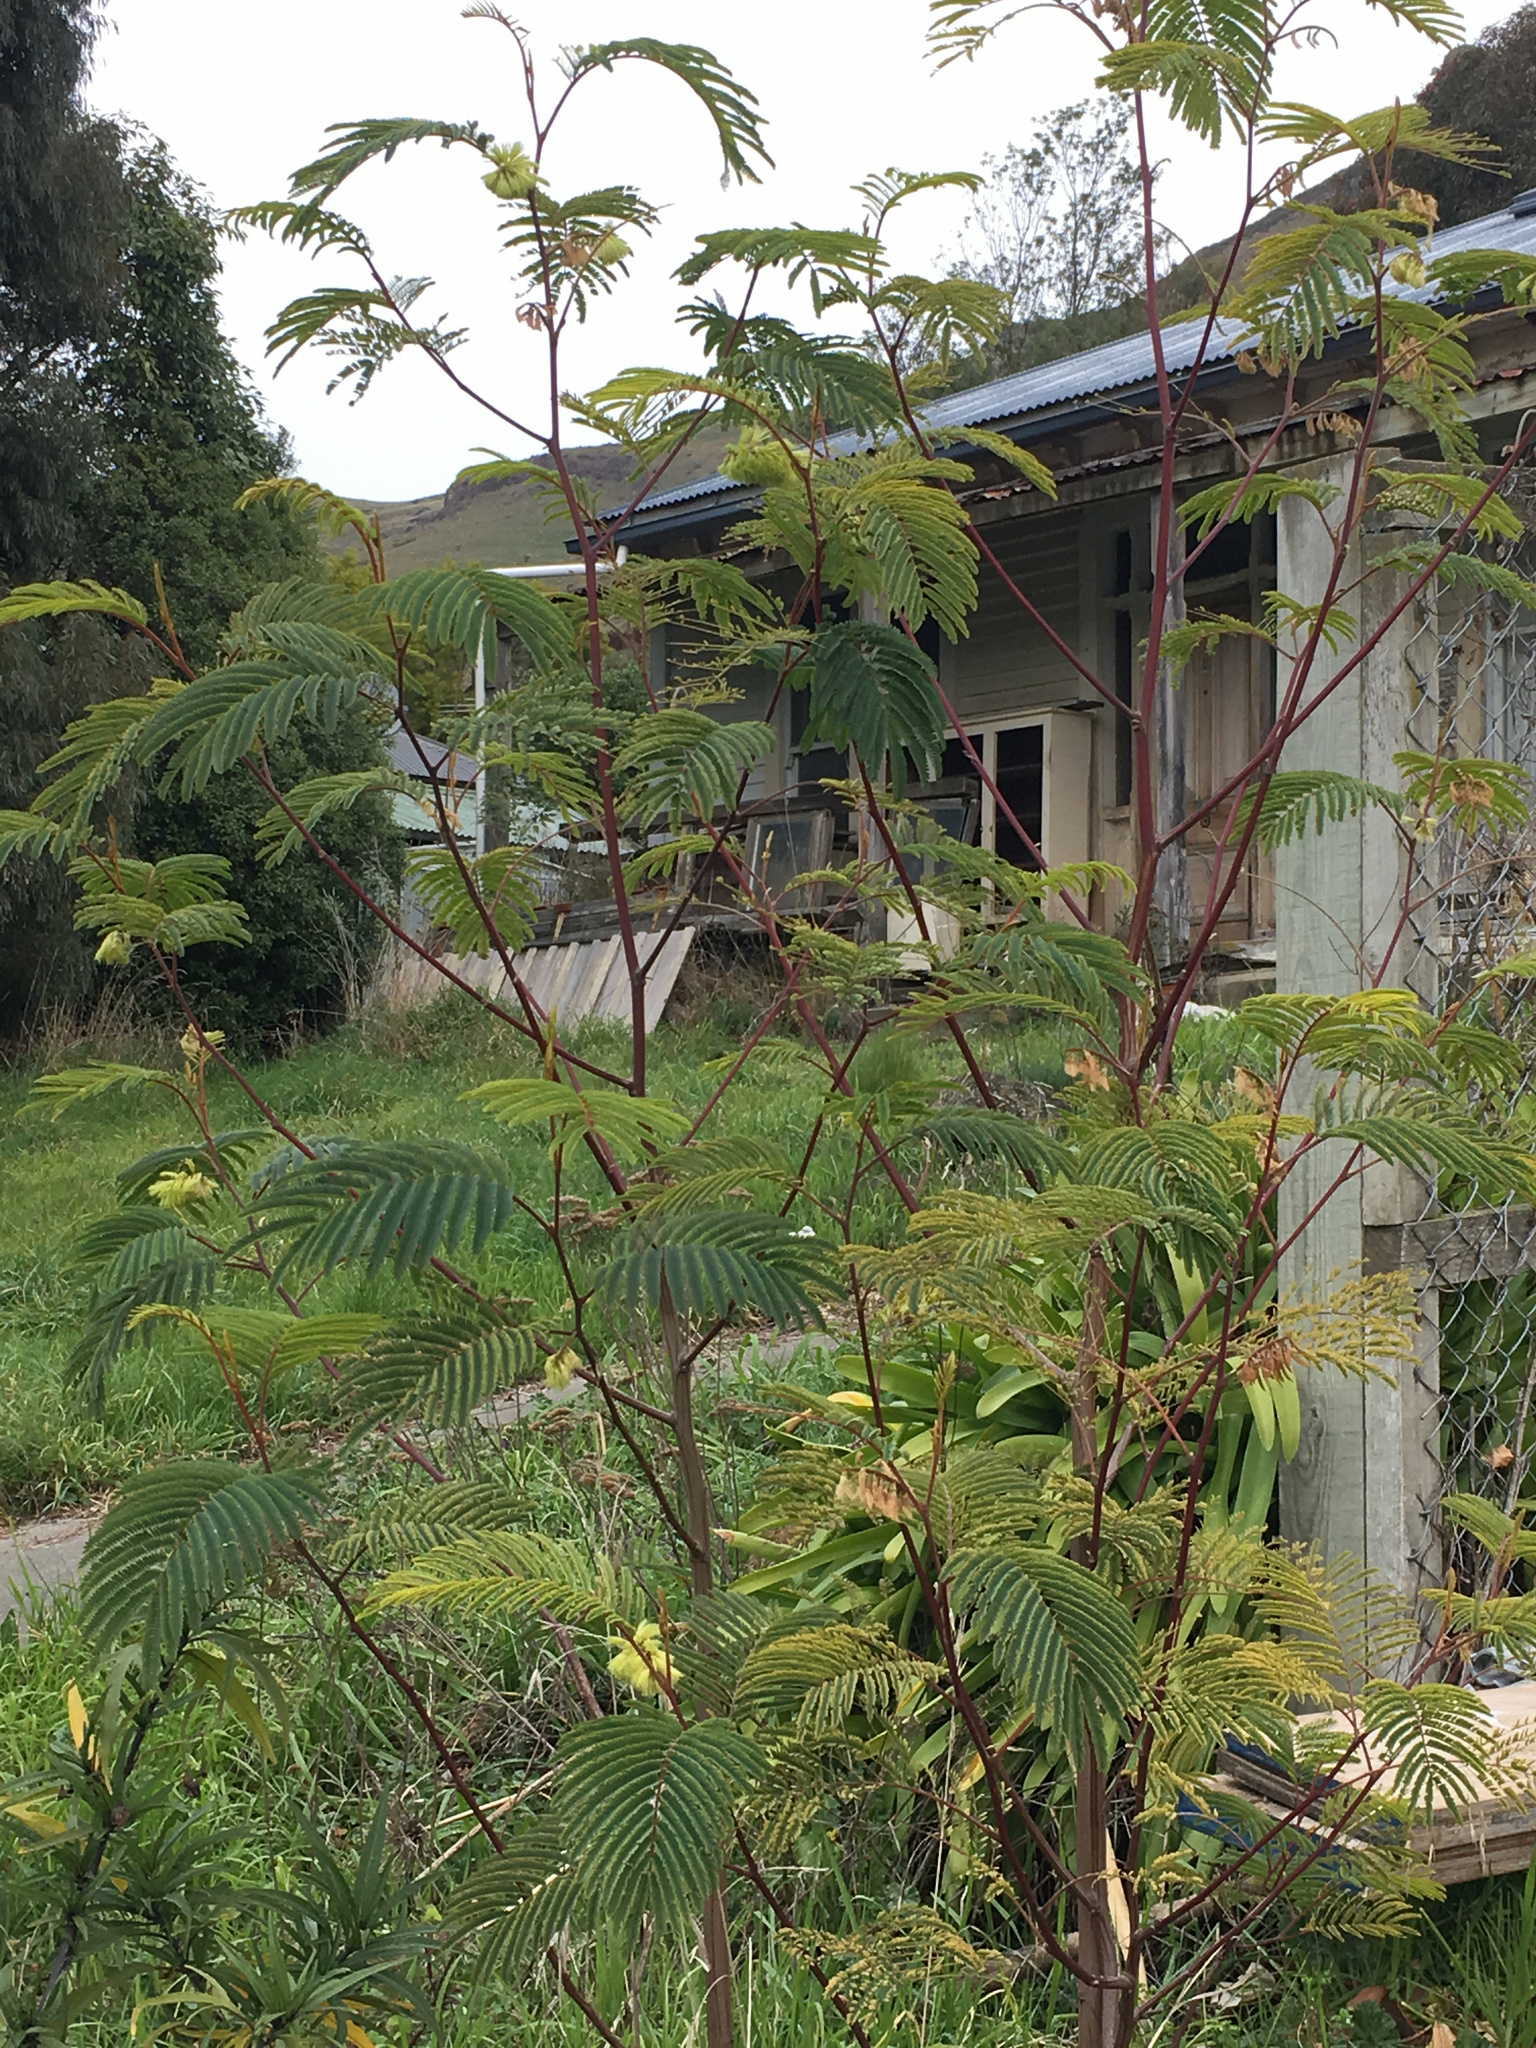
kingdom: Plantae
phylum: Tracheophyta
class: Magnoliopsida
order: Fabales
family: Fabaceae
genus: Paraserianthes
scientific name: Paraserianthes lophantha
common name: Plume albizia
